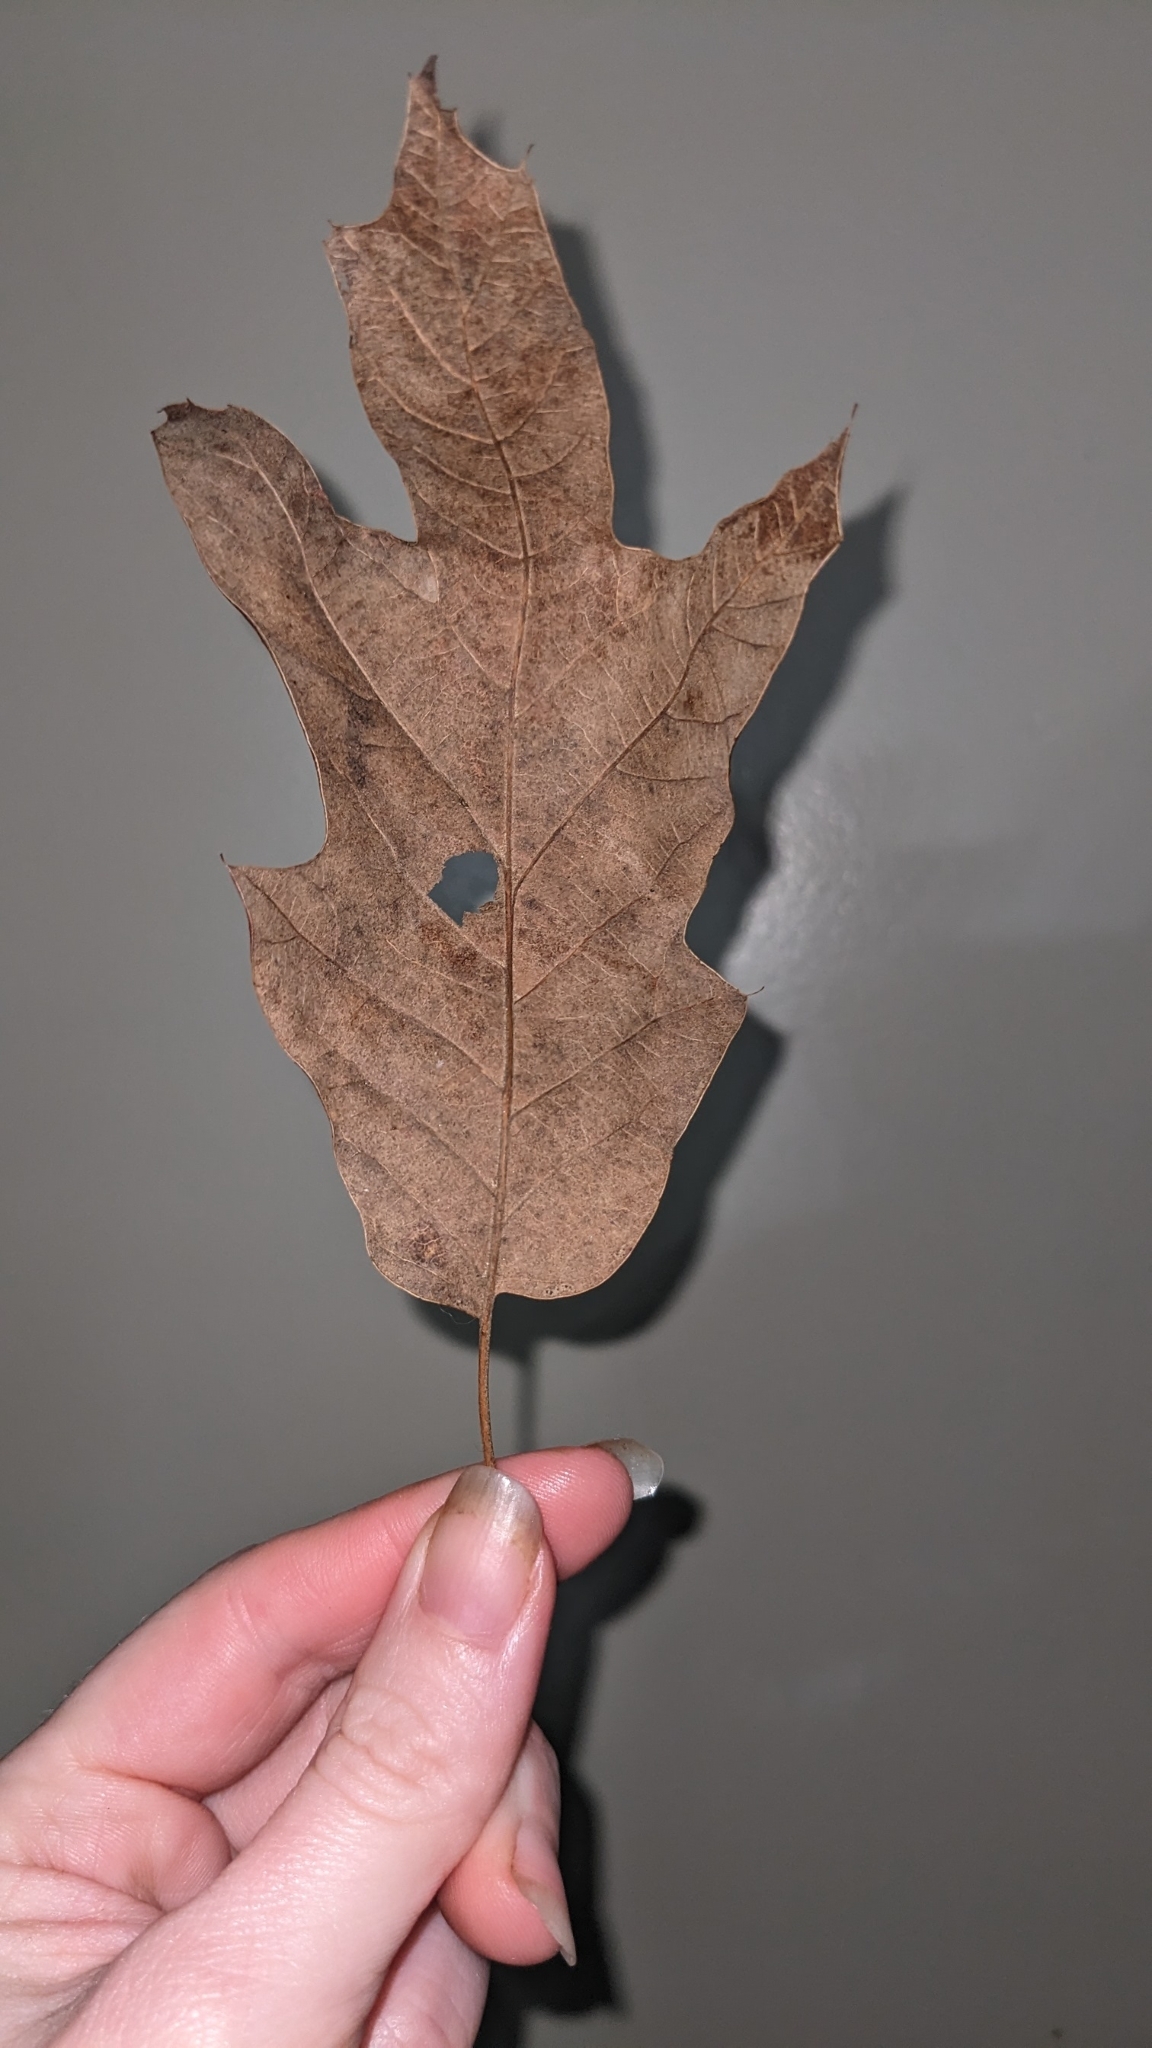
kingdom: Plantae
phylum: Tracheophyta
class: Magnoliopsida
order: Fagales
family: Fagaceae
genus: Quercus
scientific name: Quercus falcata
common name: Southern red oak
